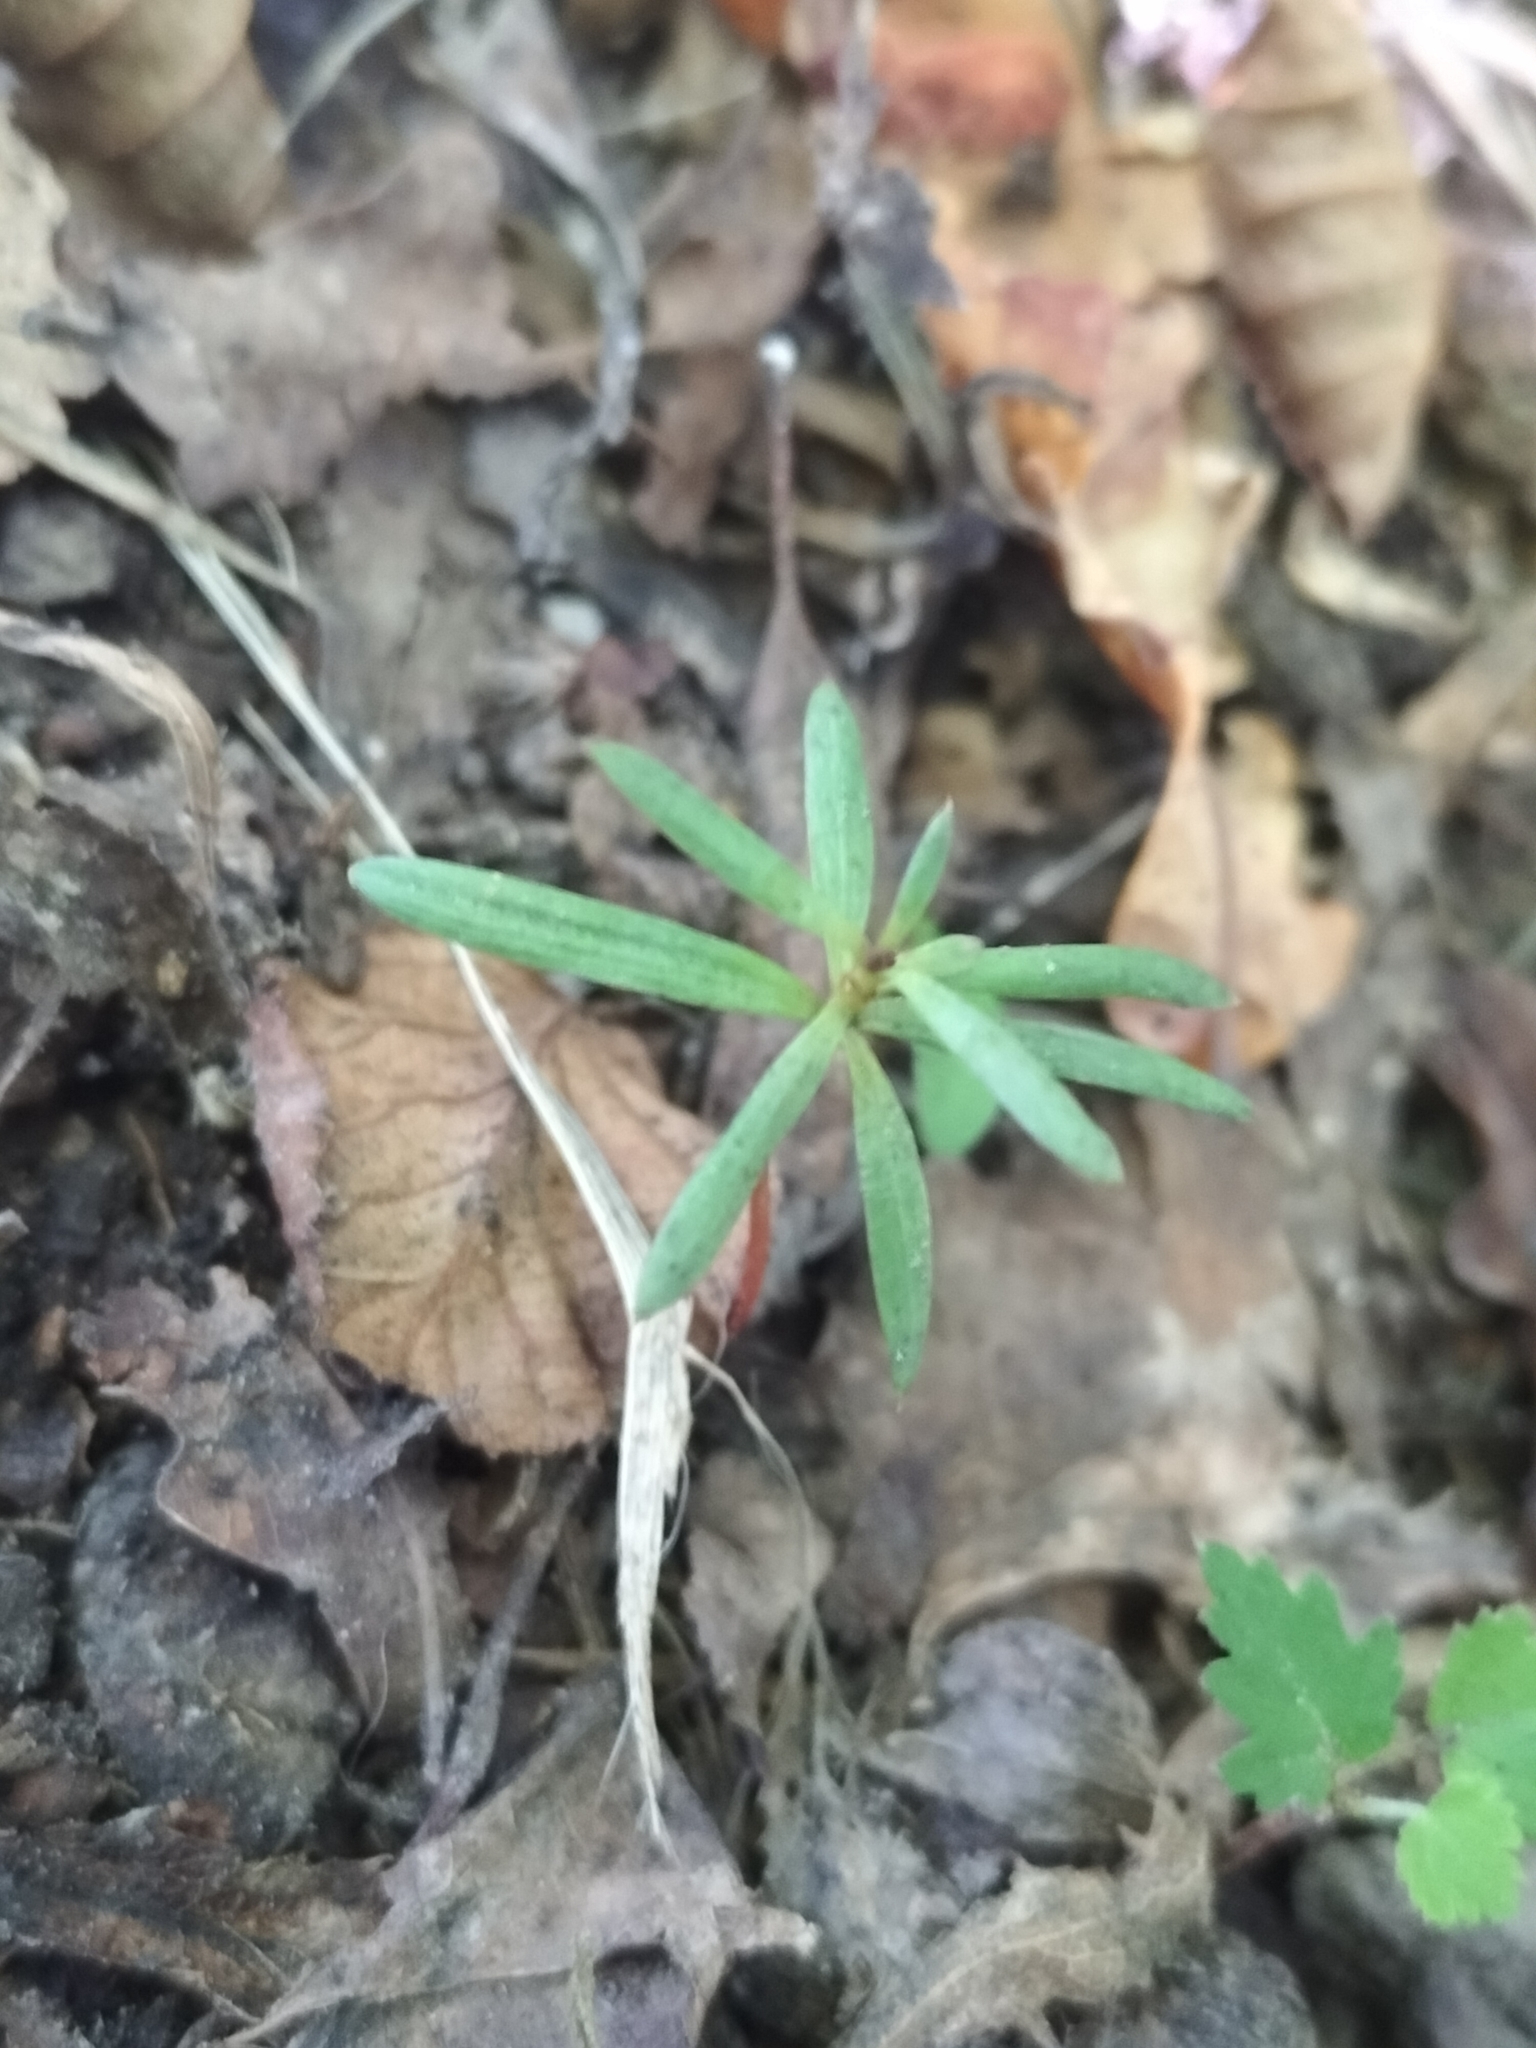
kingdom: Plantae
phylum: Tracheophyta
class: Pinopsida
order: Pinales
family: Podocarpaceae
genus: Podocarpus
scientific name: Podocarpus totara
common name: Totara
